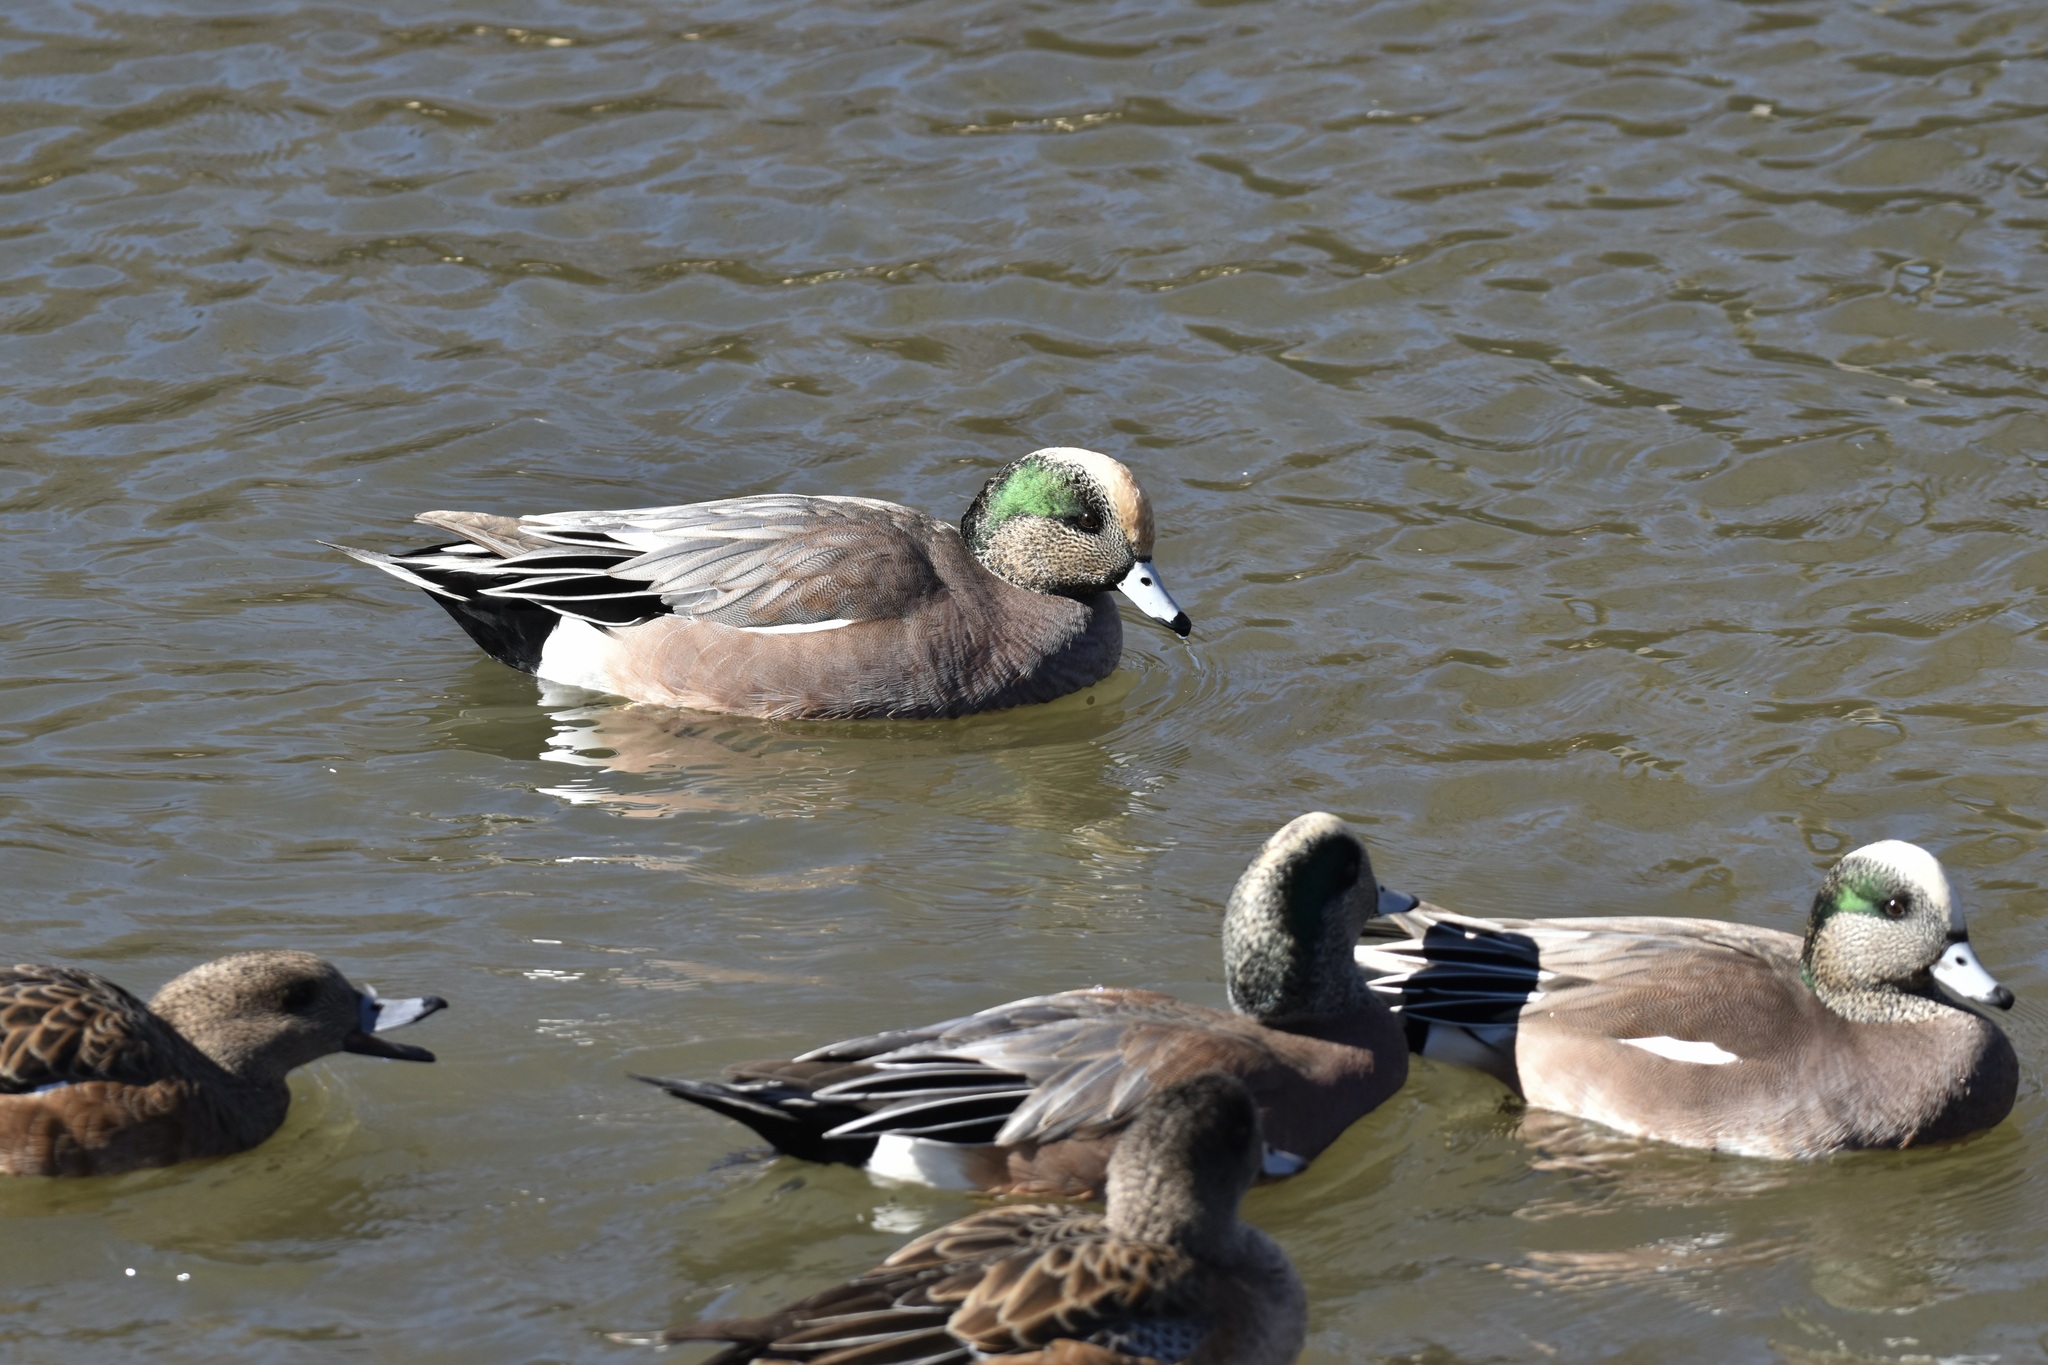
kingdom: Animalia
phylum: Chordata
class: Aves
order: Anseriformes
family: Anatidae
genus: Mareca
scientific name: Mareca americana
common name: American wigeon
